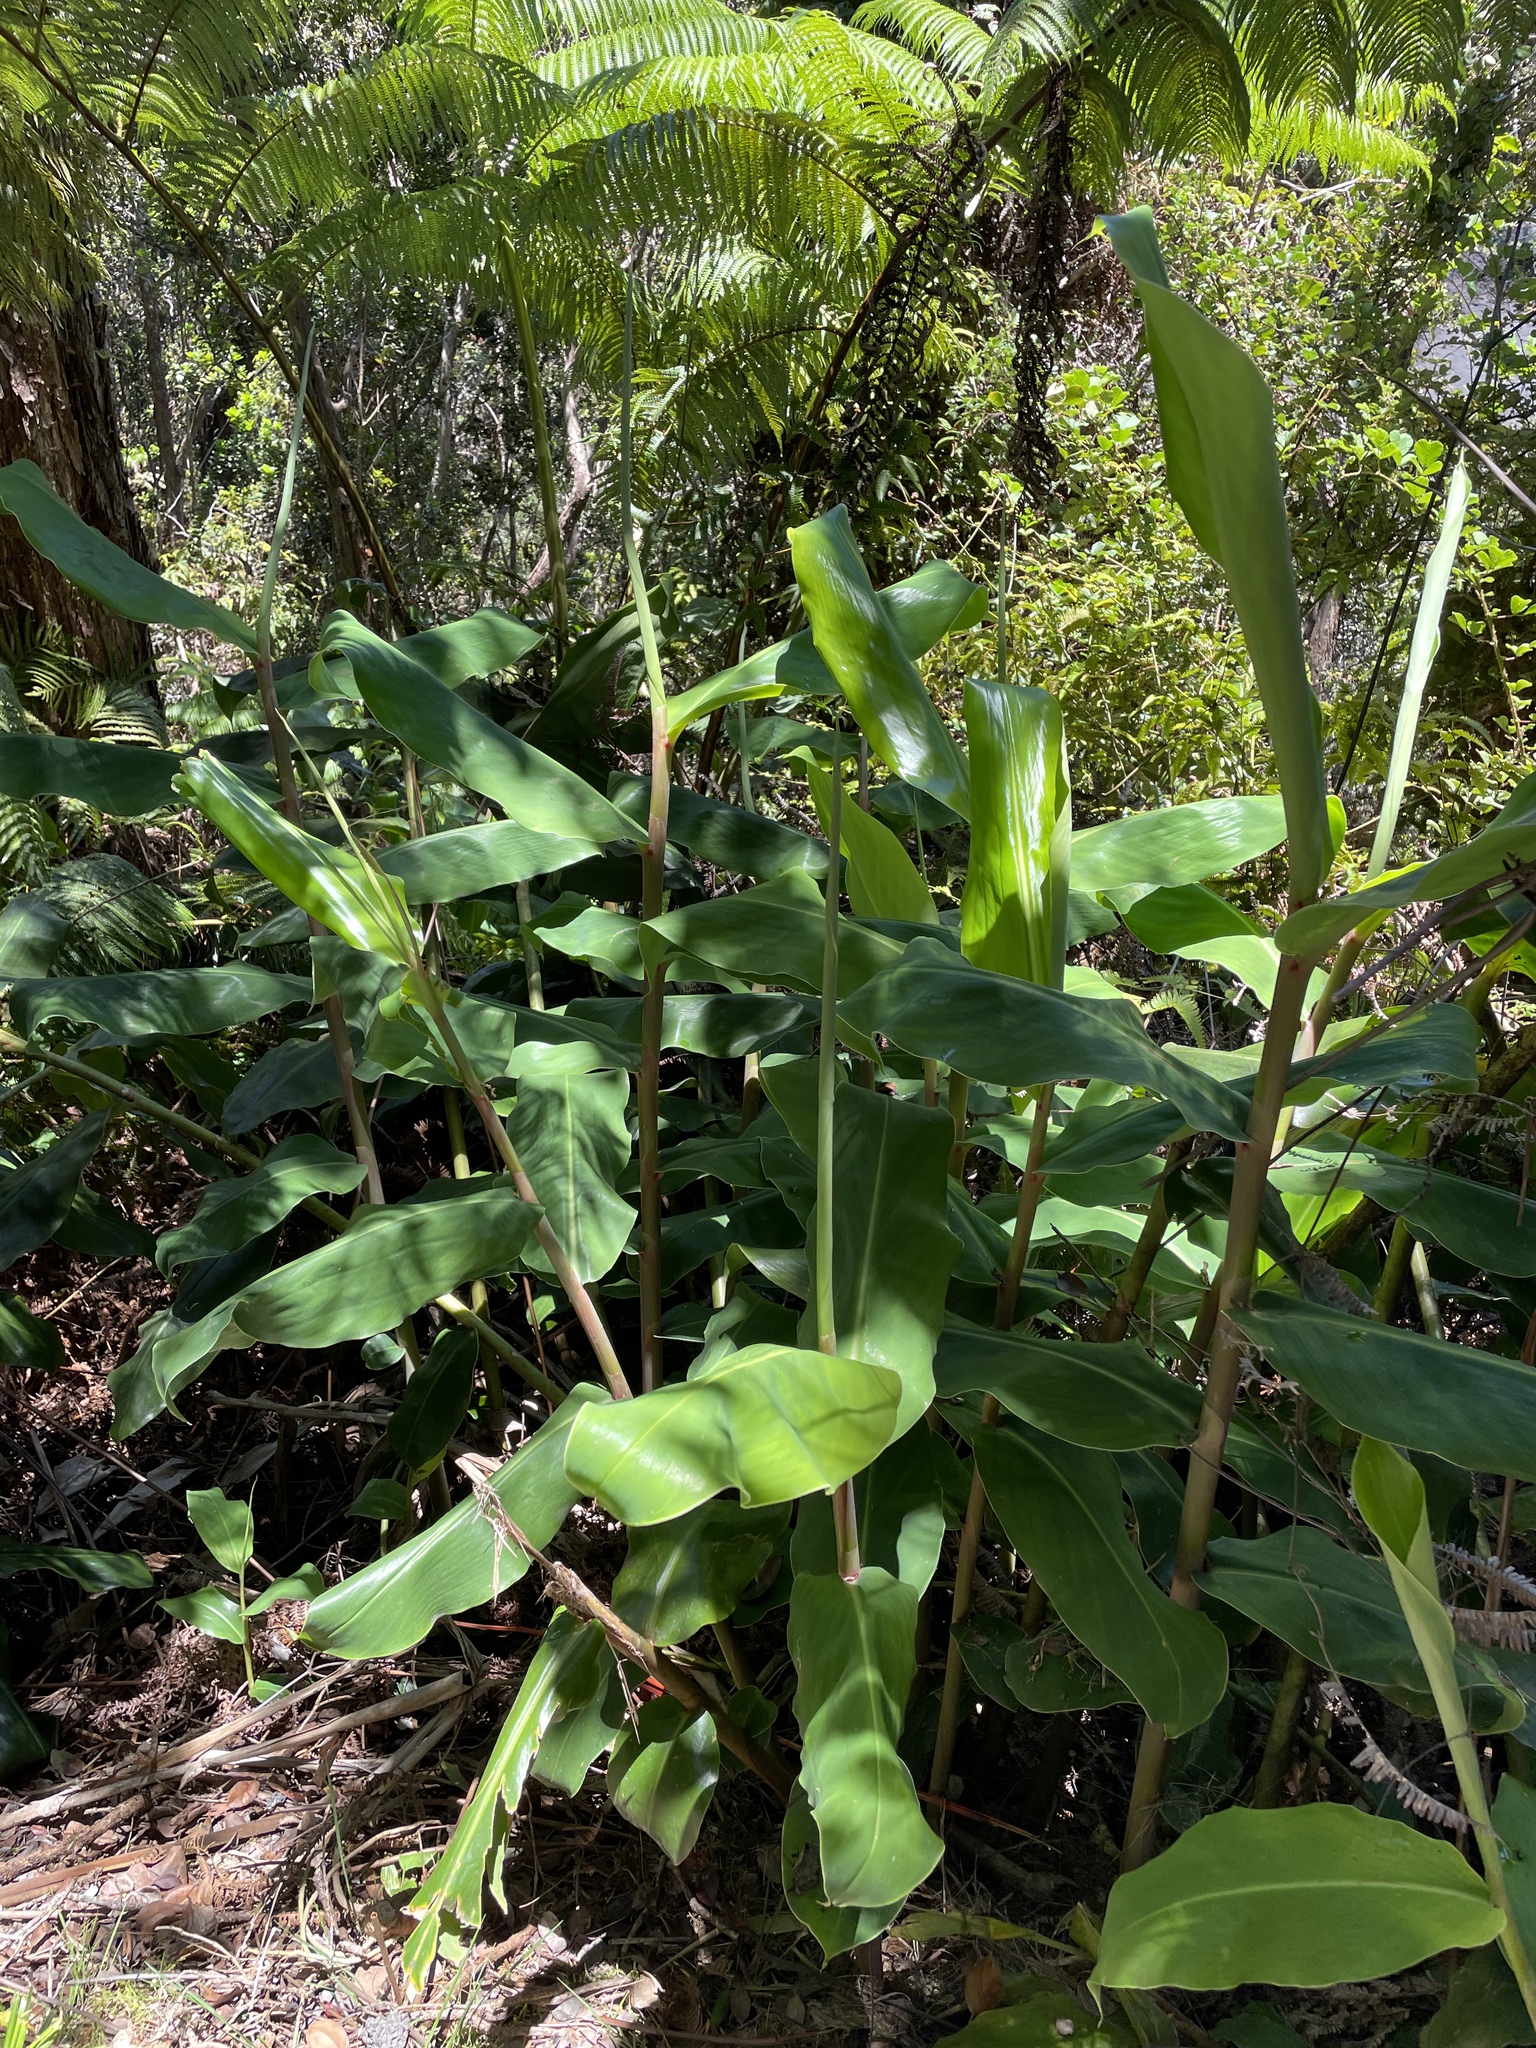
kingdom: Plantae
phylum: Tracheophyta
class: Liliopsida
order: Zingiberales
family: Zingiberaceae
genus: Hedychium
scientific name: Hedychium gardnerianum
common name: Himalayan ginger
